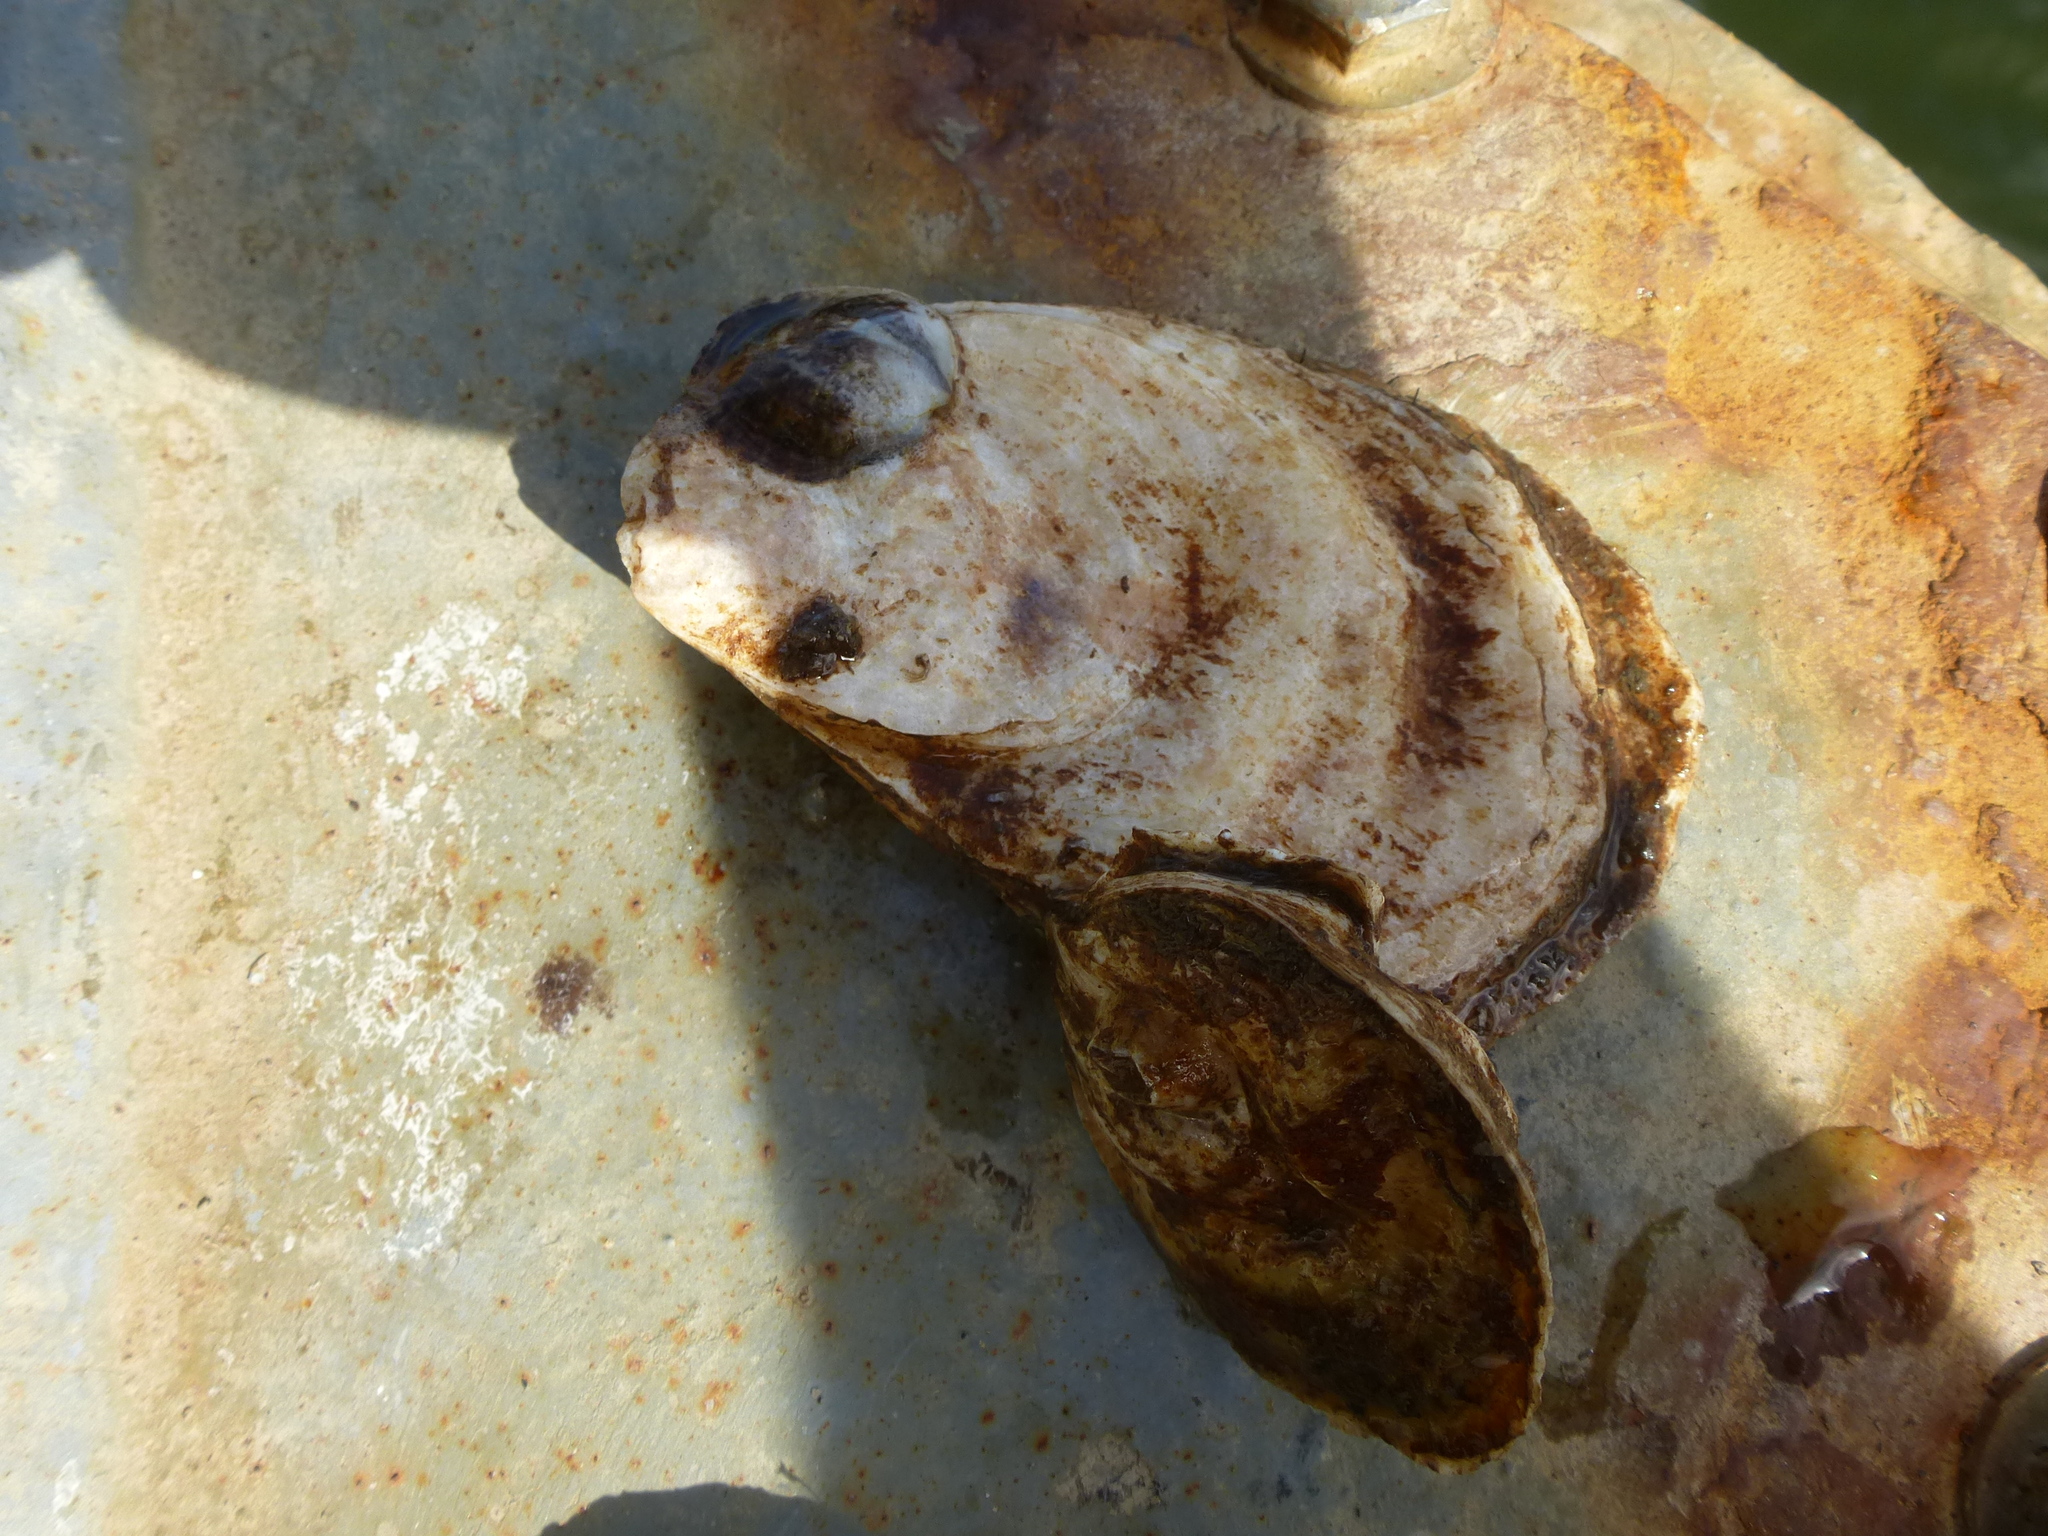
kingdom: Animalia
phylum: Mollusca
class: Bivalvia
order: Ostreida
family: Ostreidae
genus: Crassostrea
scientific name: Crassostrea virginica
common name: American oyster
